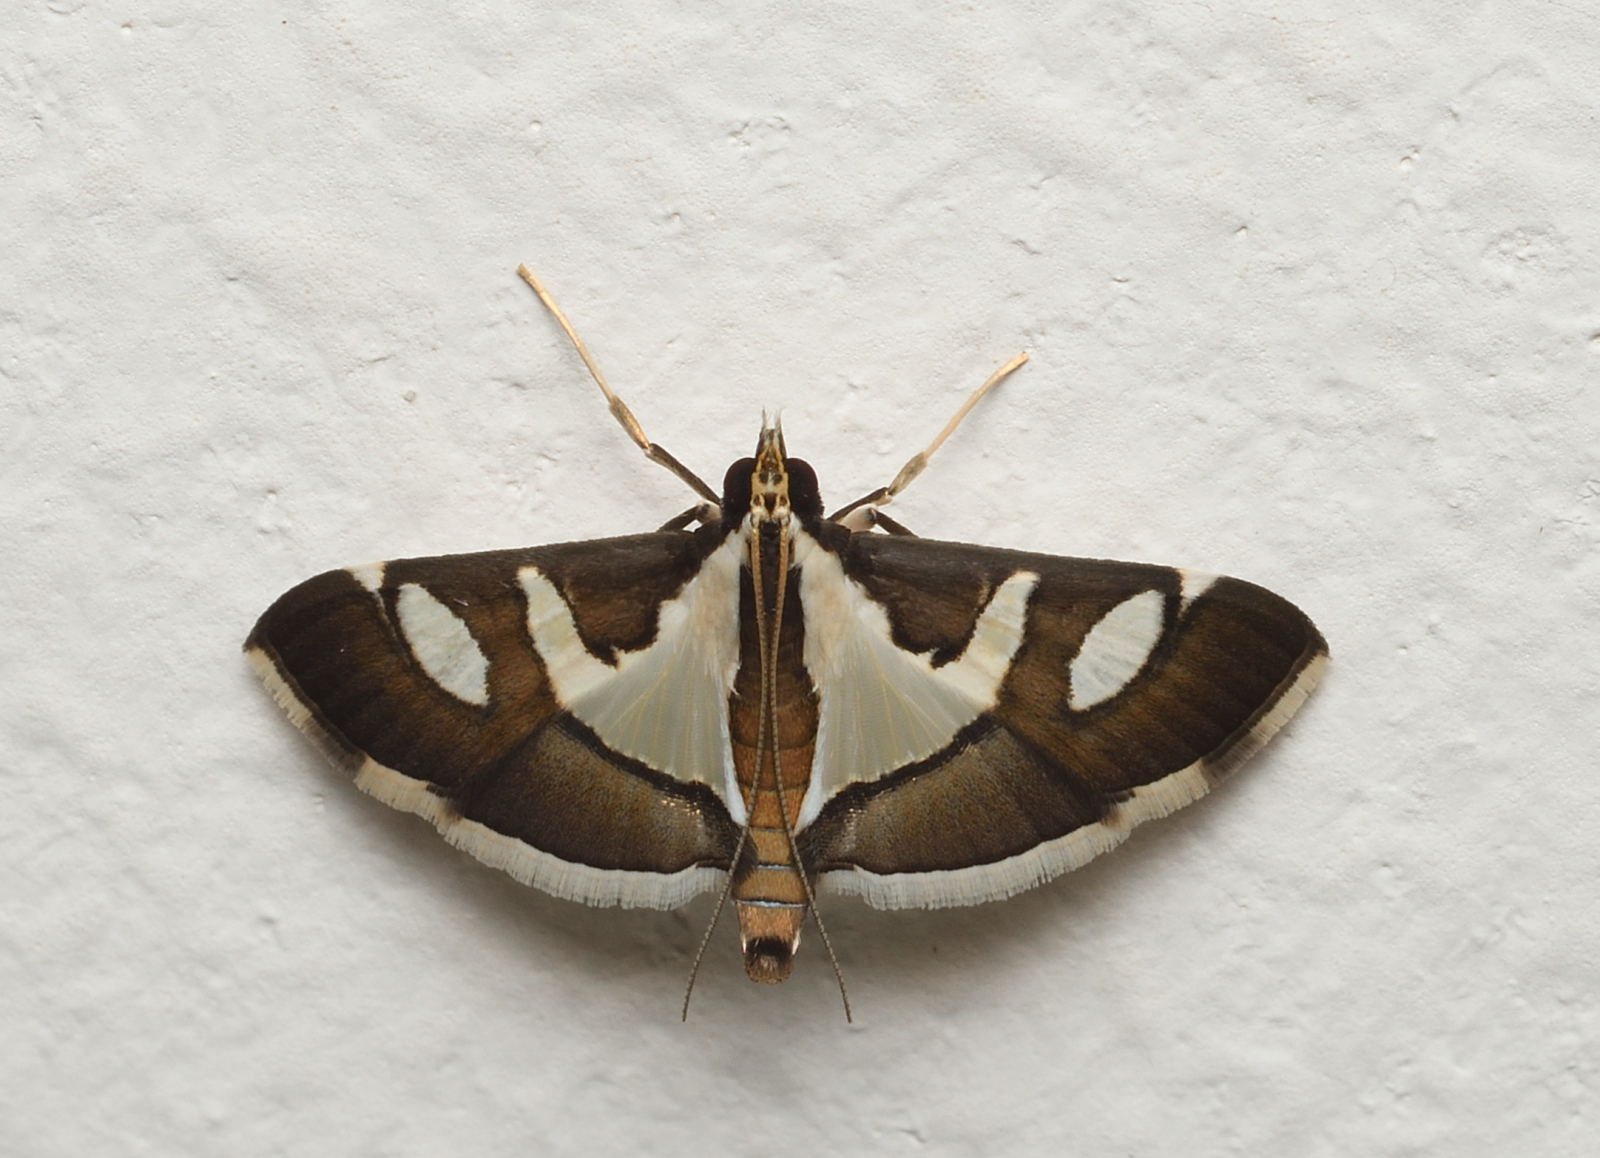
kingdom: Animalia
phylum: Arthropoda
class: Insecta
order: Lepidoptera
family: Crambidae
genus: Glyphodes
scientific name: Glyphodes bicolor
